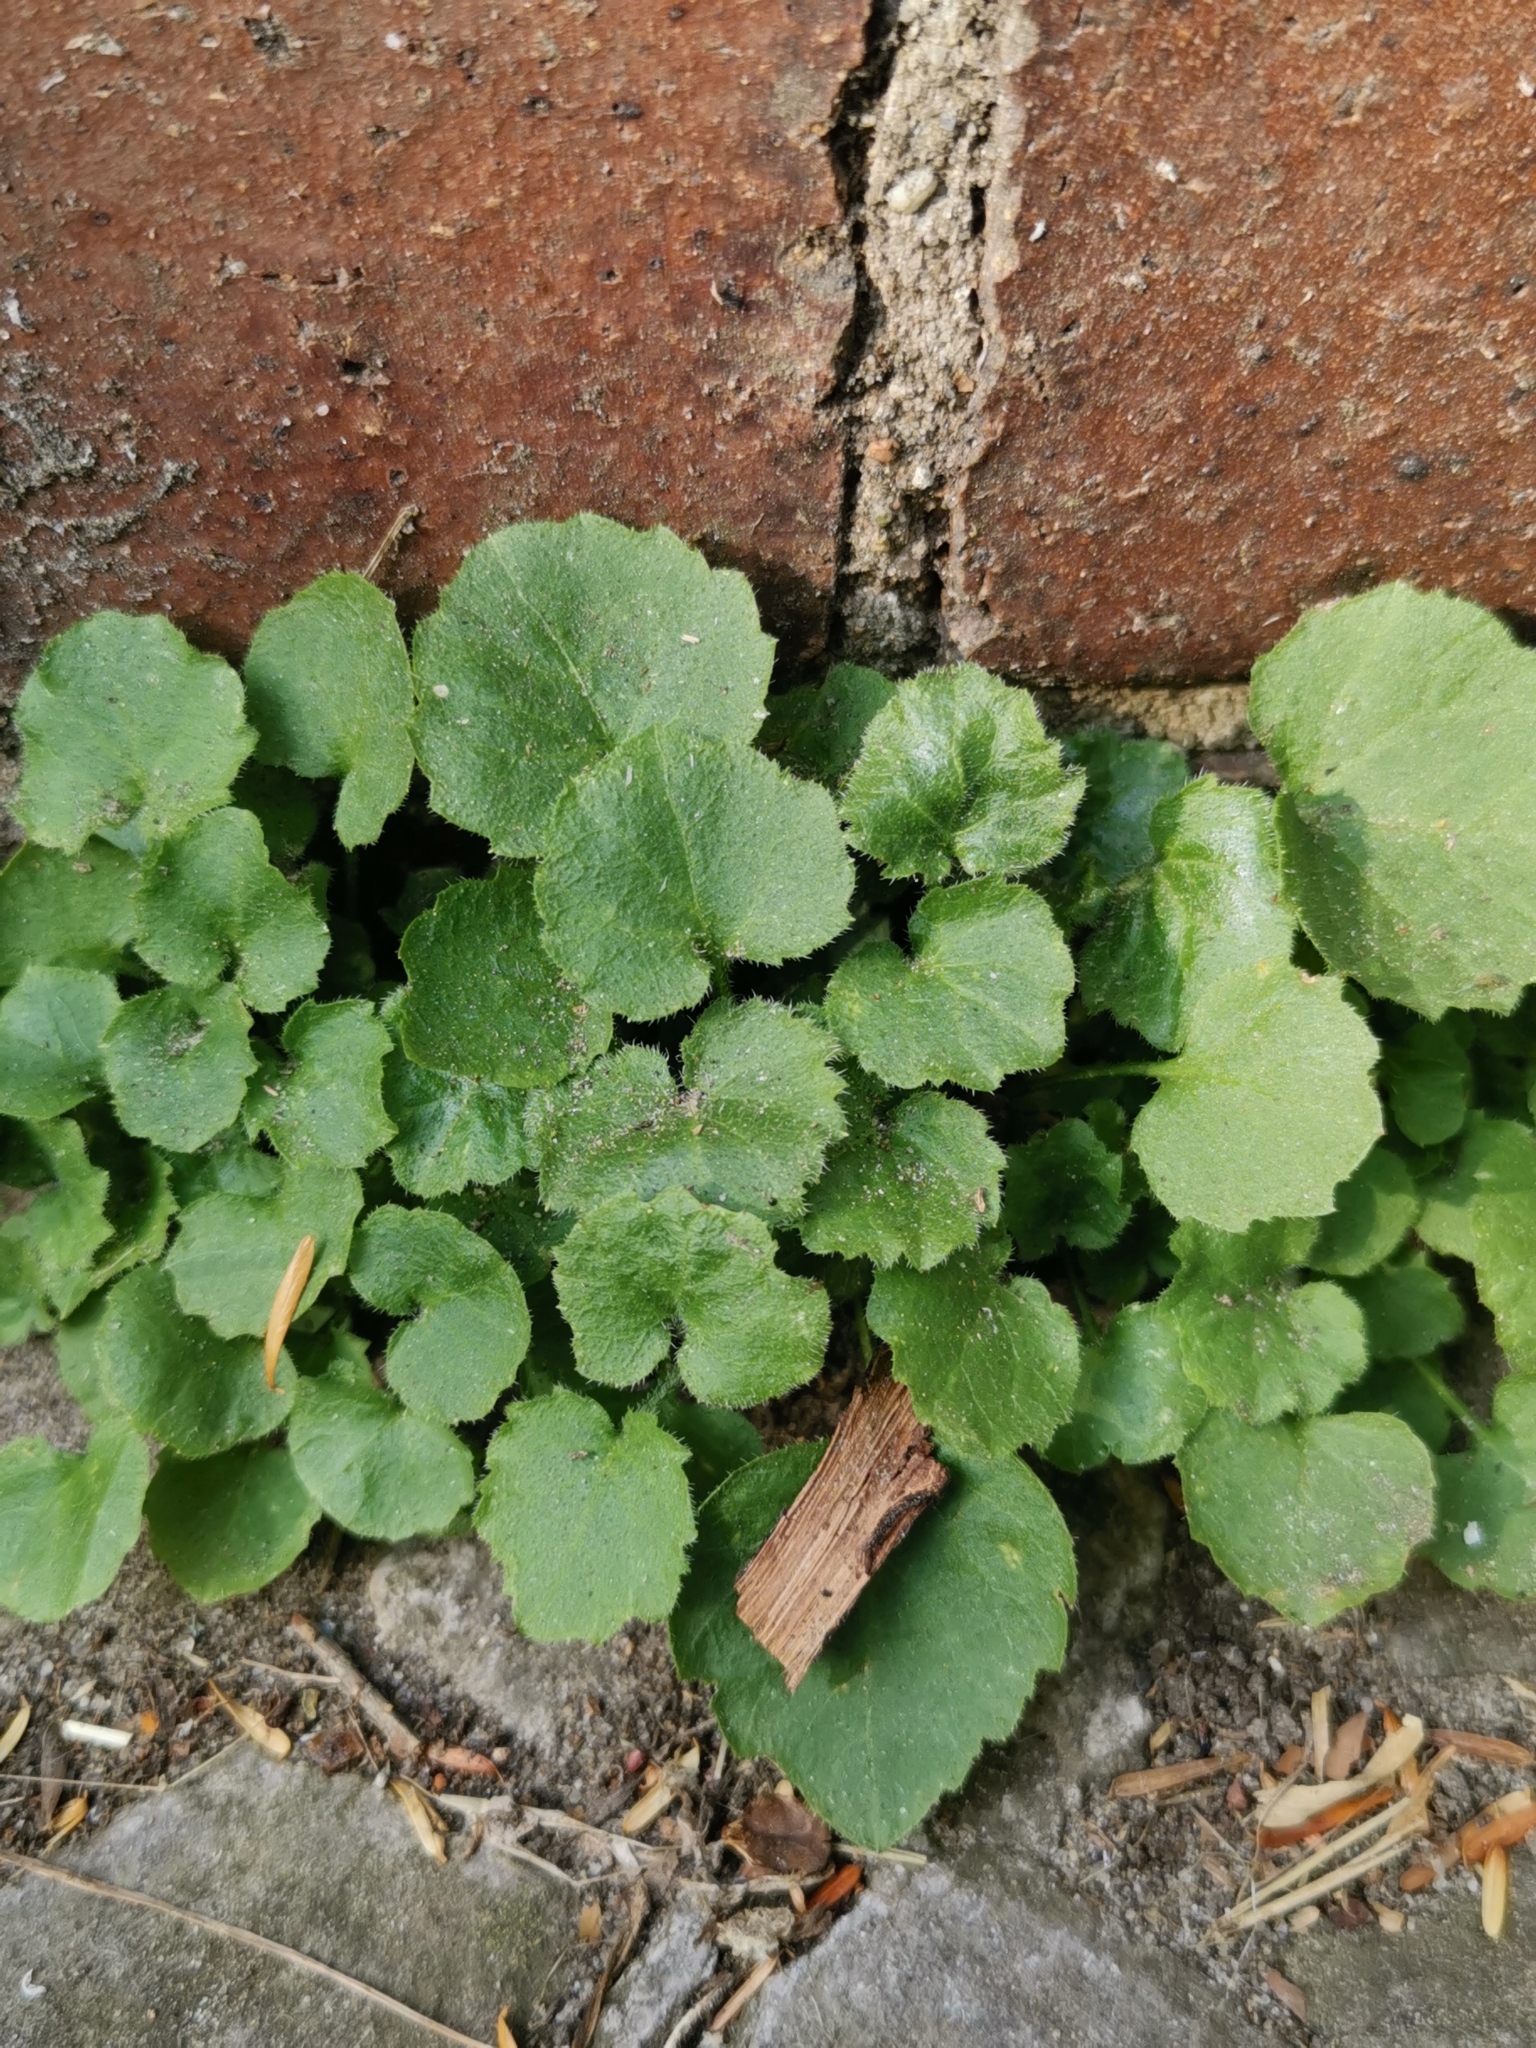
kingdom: Plantae
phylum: Tracheophyta
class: Magnoliopsida
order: Asterales
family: Campanulaceae
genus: Campanula
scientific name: Campanula poscharskyana
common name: Trailing bellflower
